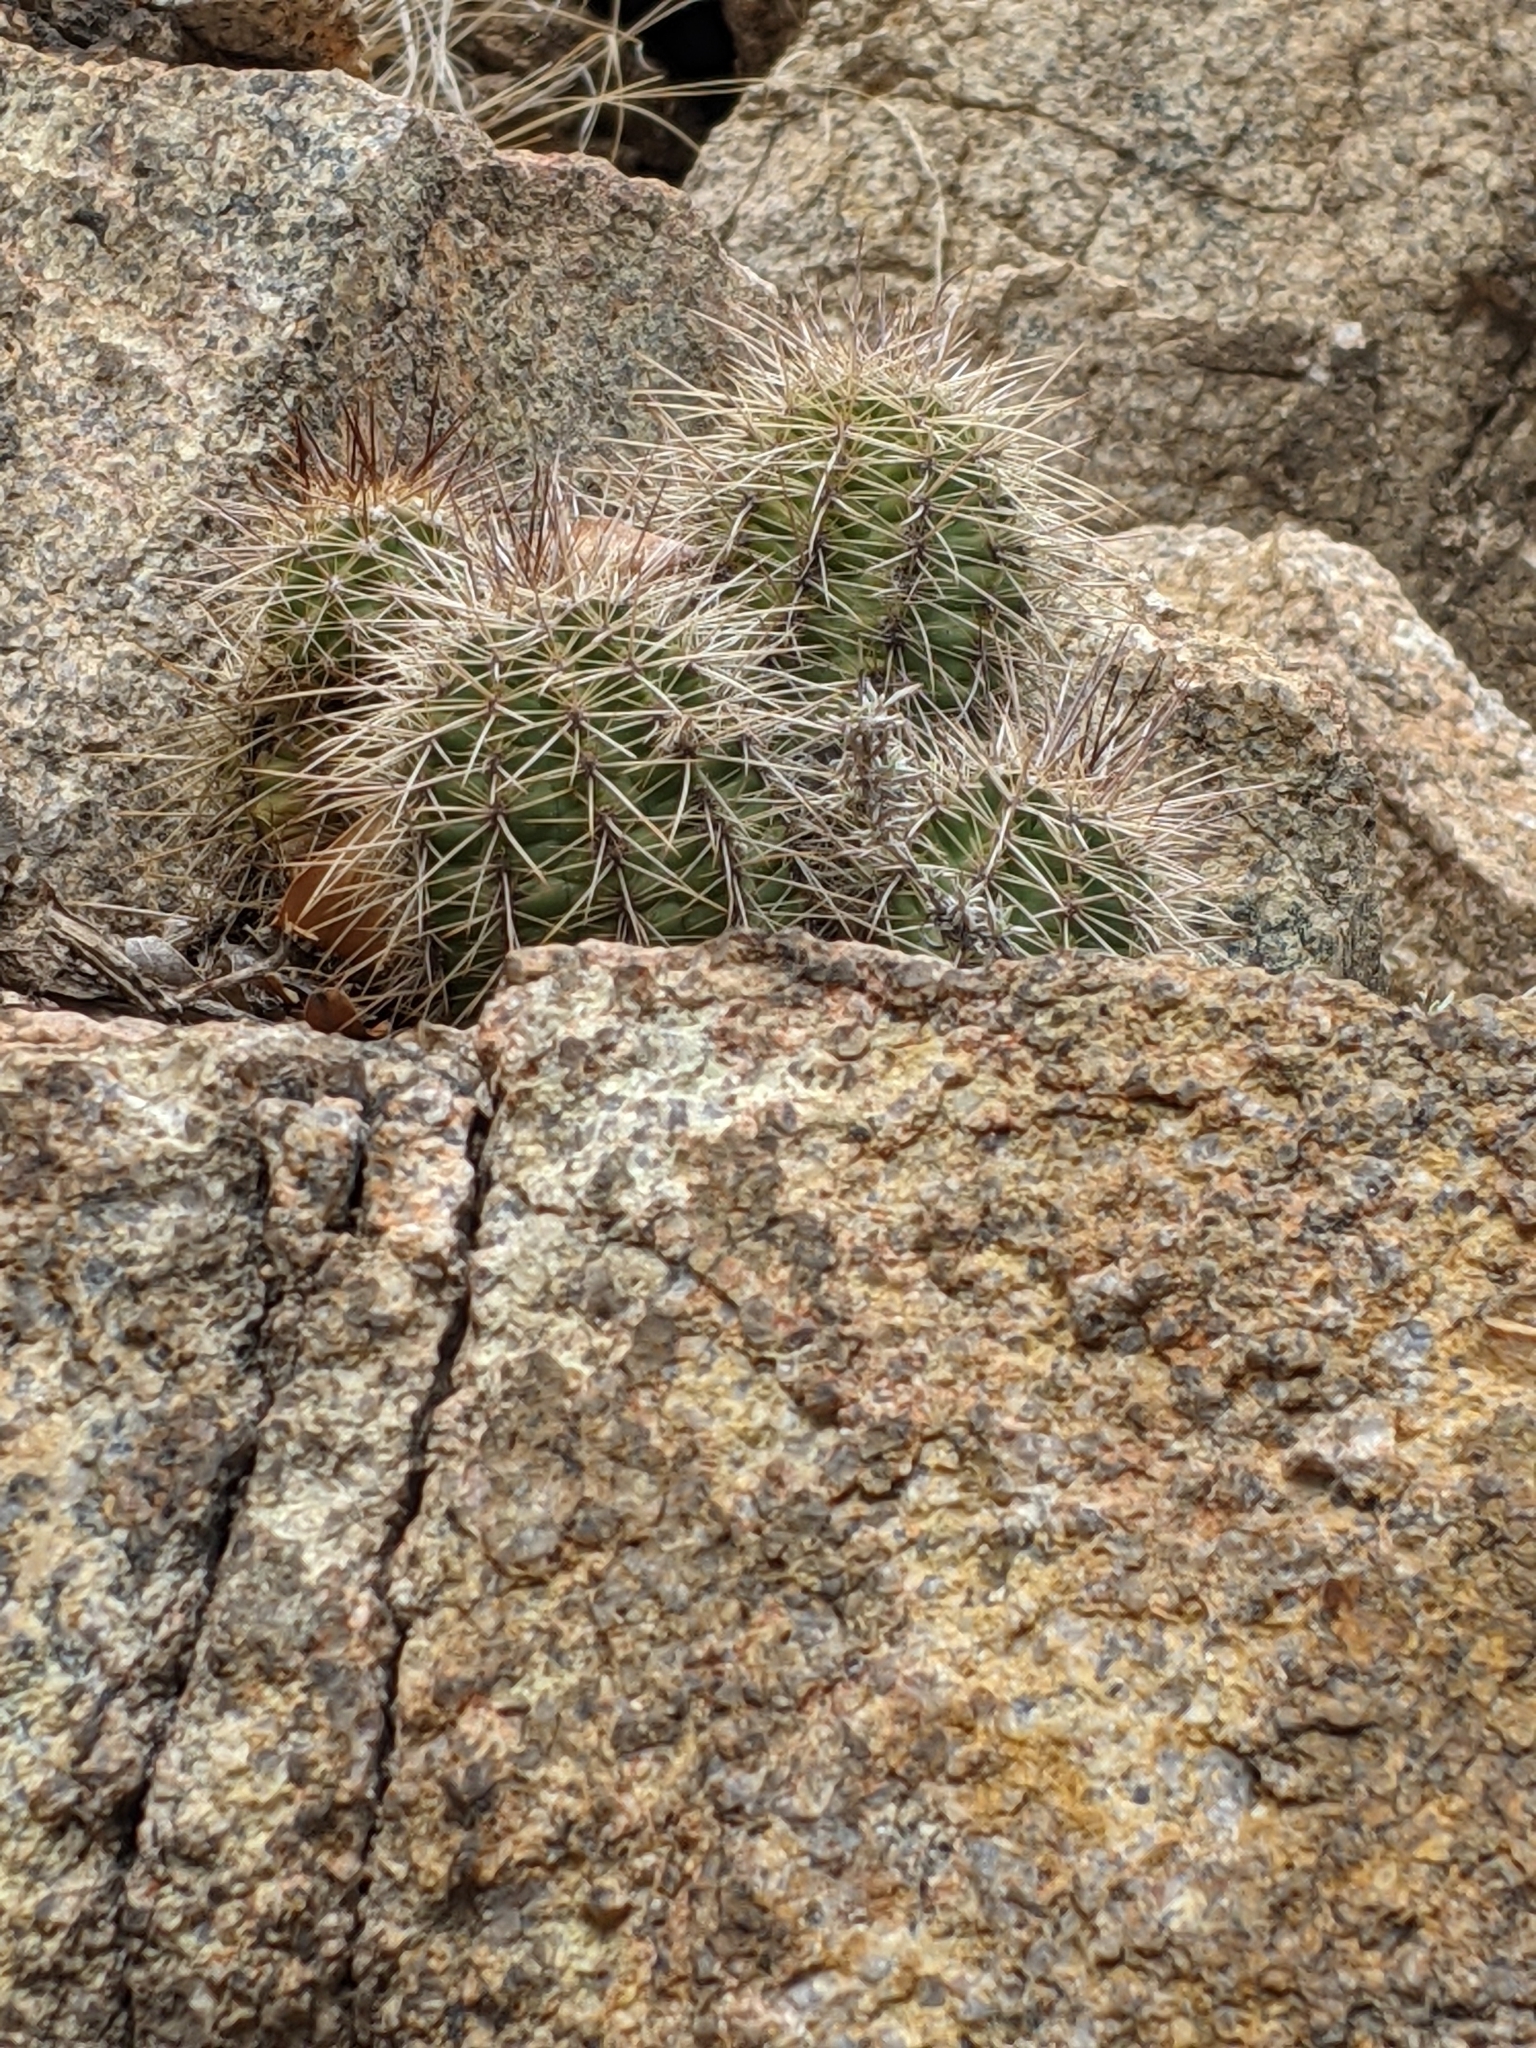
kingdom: Plantae
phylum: Tracheophyta
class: Magnoliopsida
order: Caryophyllales
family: Cactaceae
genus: Echinocereus
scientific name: Echinocereus bakeri
